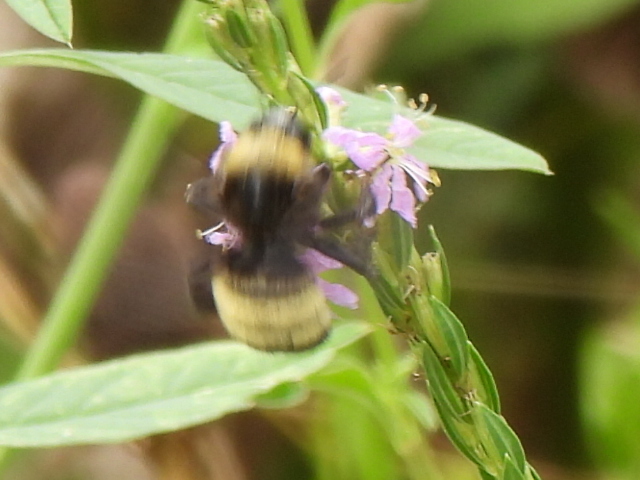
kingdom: Animalia
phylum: Arthropoda
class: Insecta
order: Hymenoptera
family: Apidae
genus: Bombus
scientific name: Bombus pensylvanicus
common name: Bumble bee
